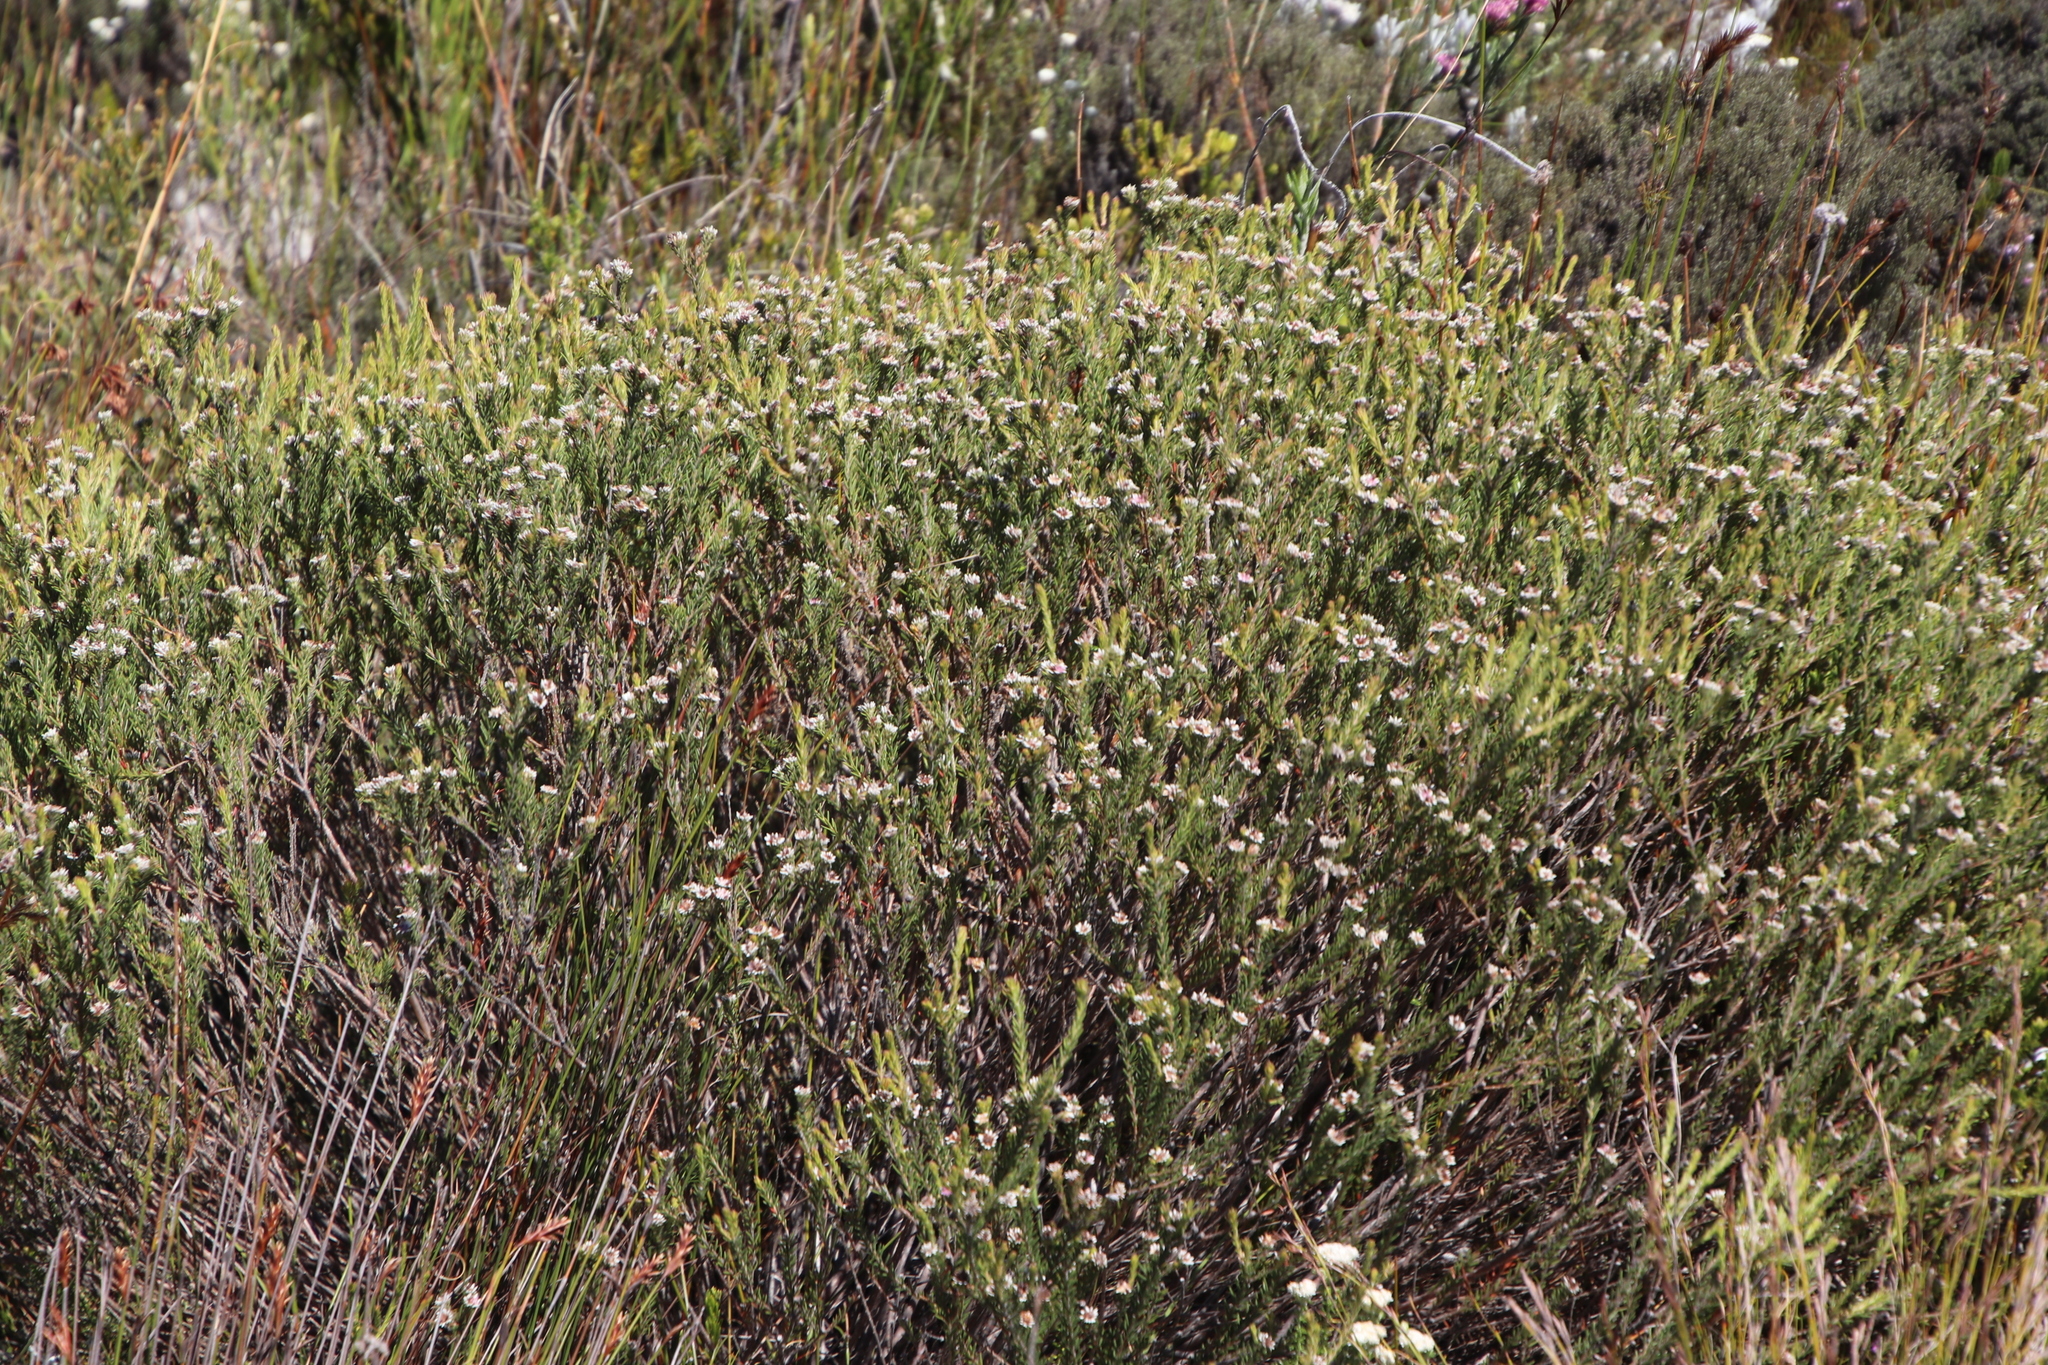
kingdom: Plantae
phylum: Tracheophyta
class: Magnoliopsida
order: Bruniales
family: Bruniaceae
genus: Staavia
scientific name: Staavia radiata
